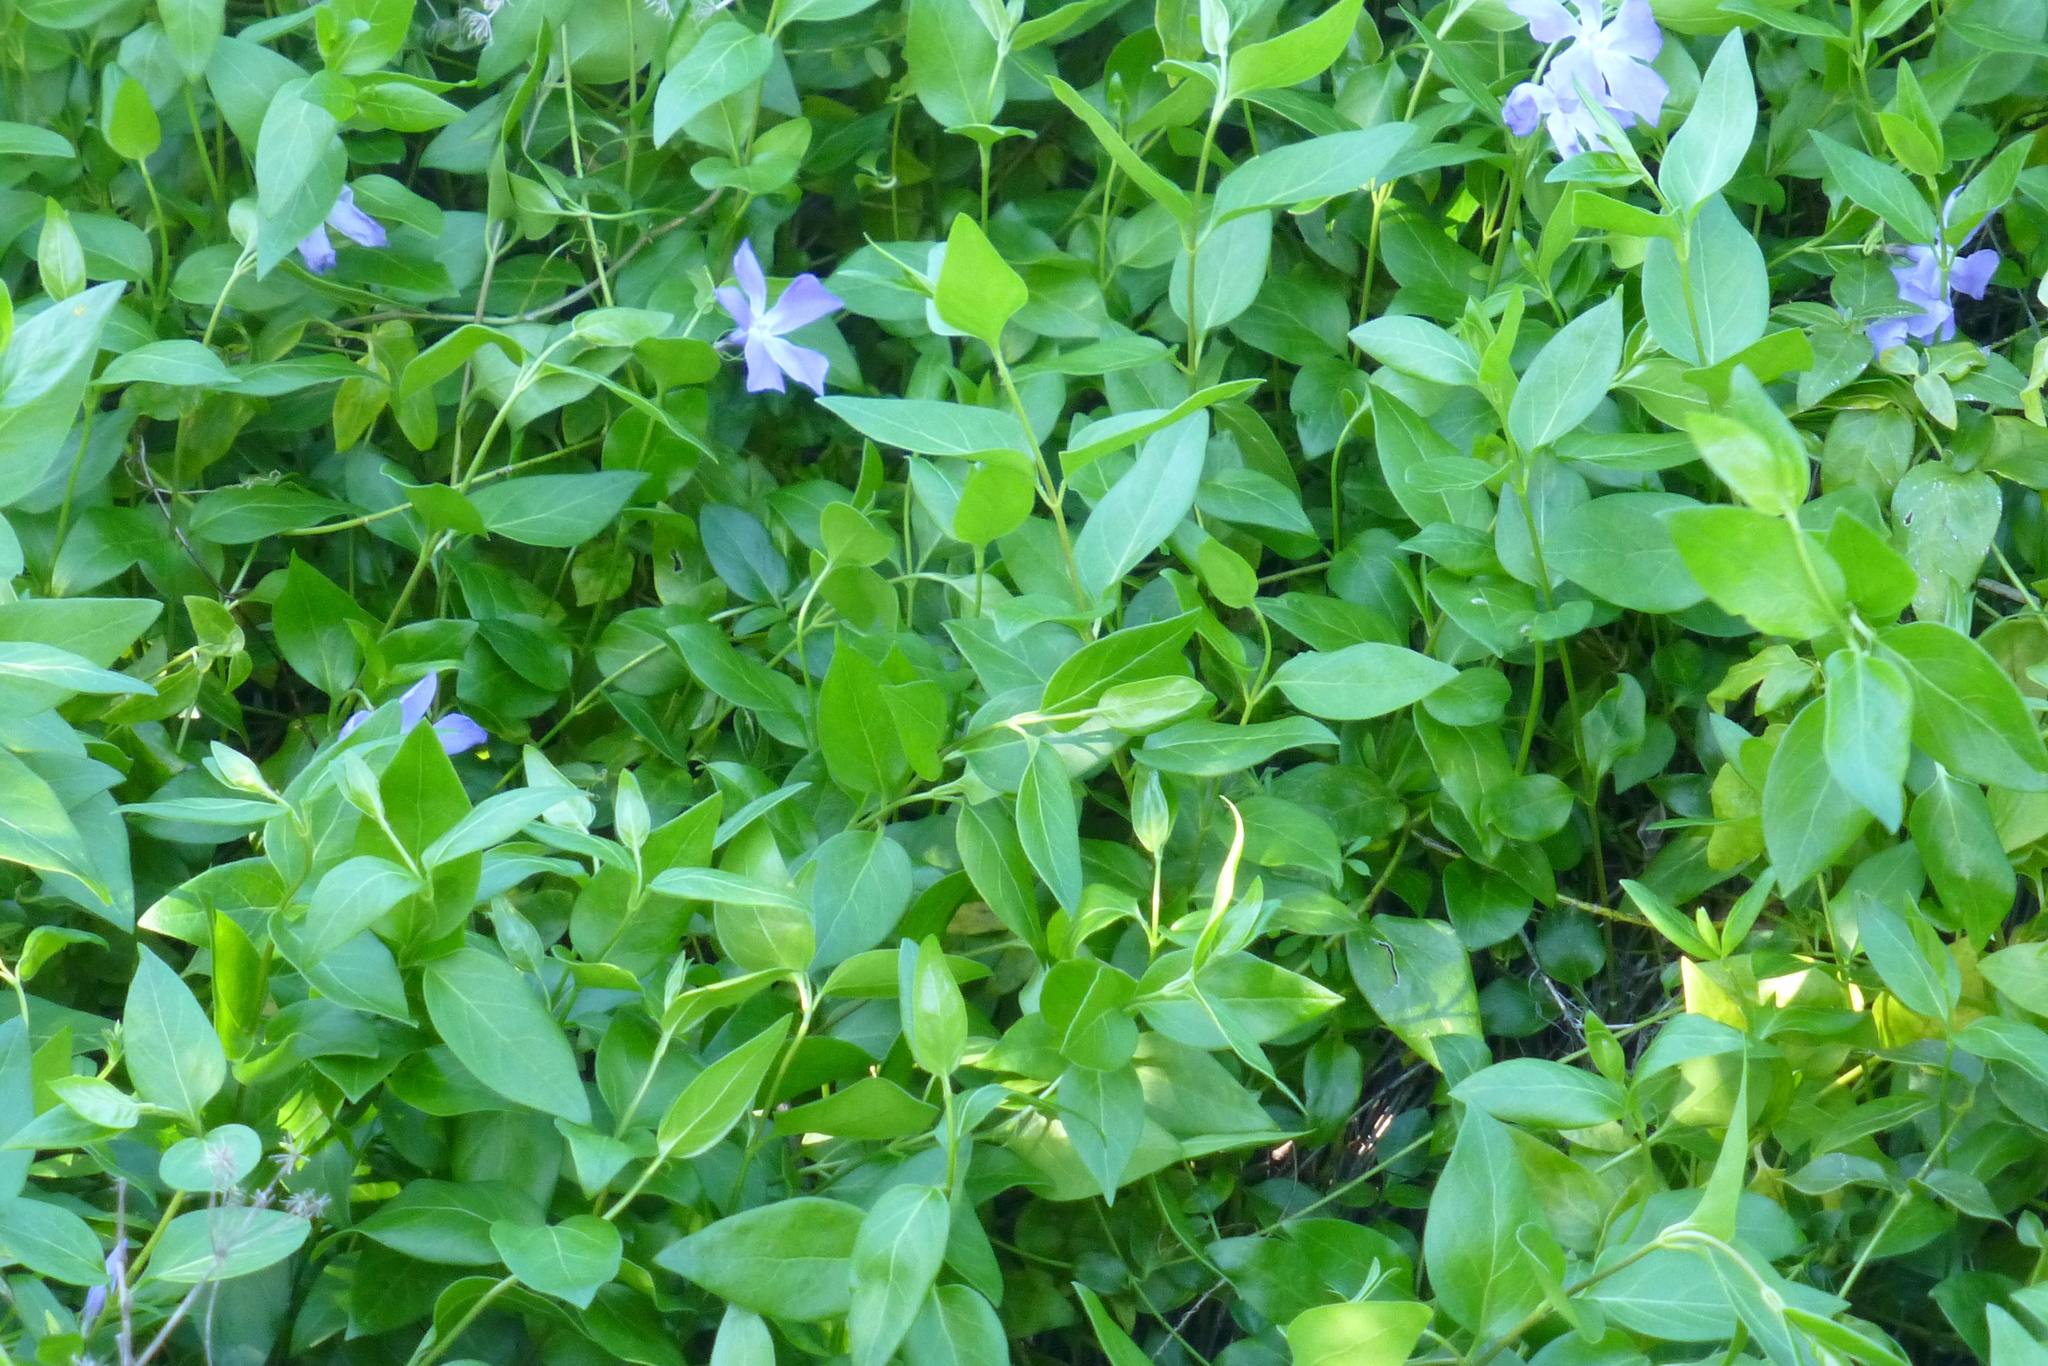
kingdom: Plantae
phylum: Tracheophyta
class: Magnoliopsida
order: Gentianales
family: Apocynaceae
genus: Vinca
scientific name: Vinca major
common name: Greater periwinkle
